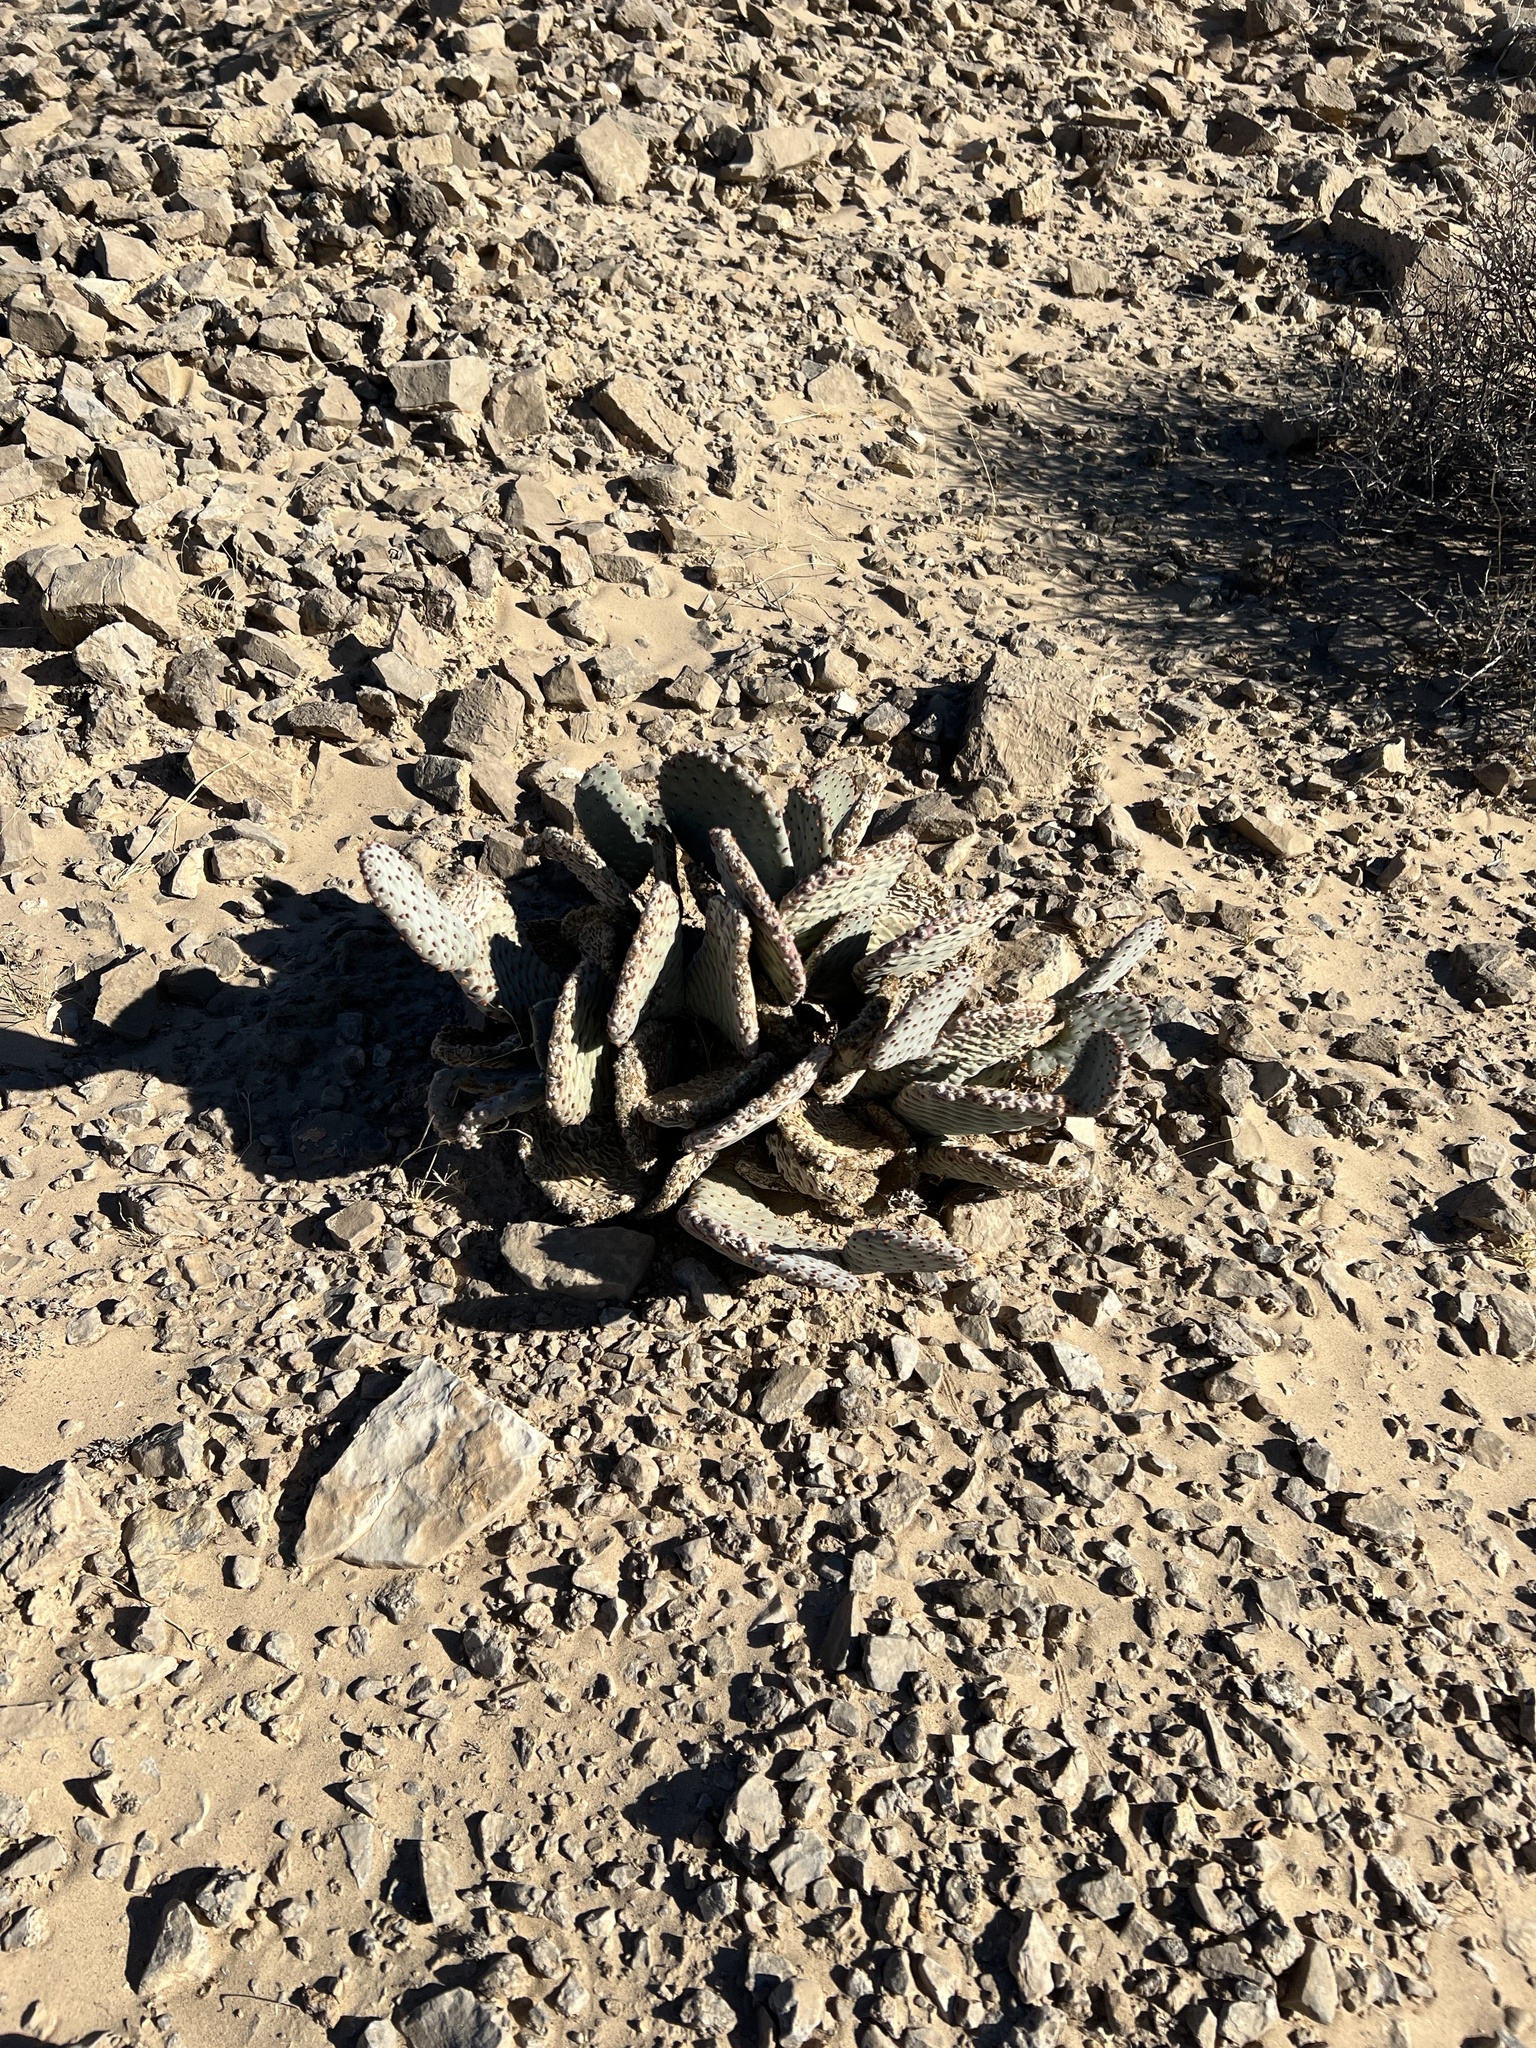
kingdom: Plantae
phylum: Tracheophyta
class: Magnoliopsida
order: Caryophyllales
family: Cactaceae
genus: Opuntia
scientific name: Opuntia basilaris
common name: Beavertail prickly-pear
